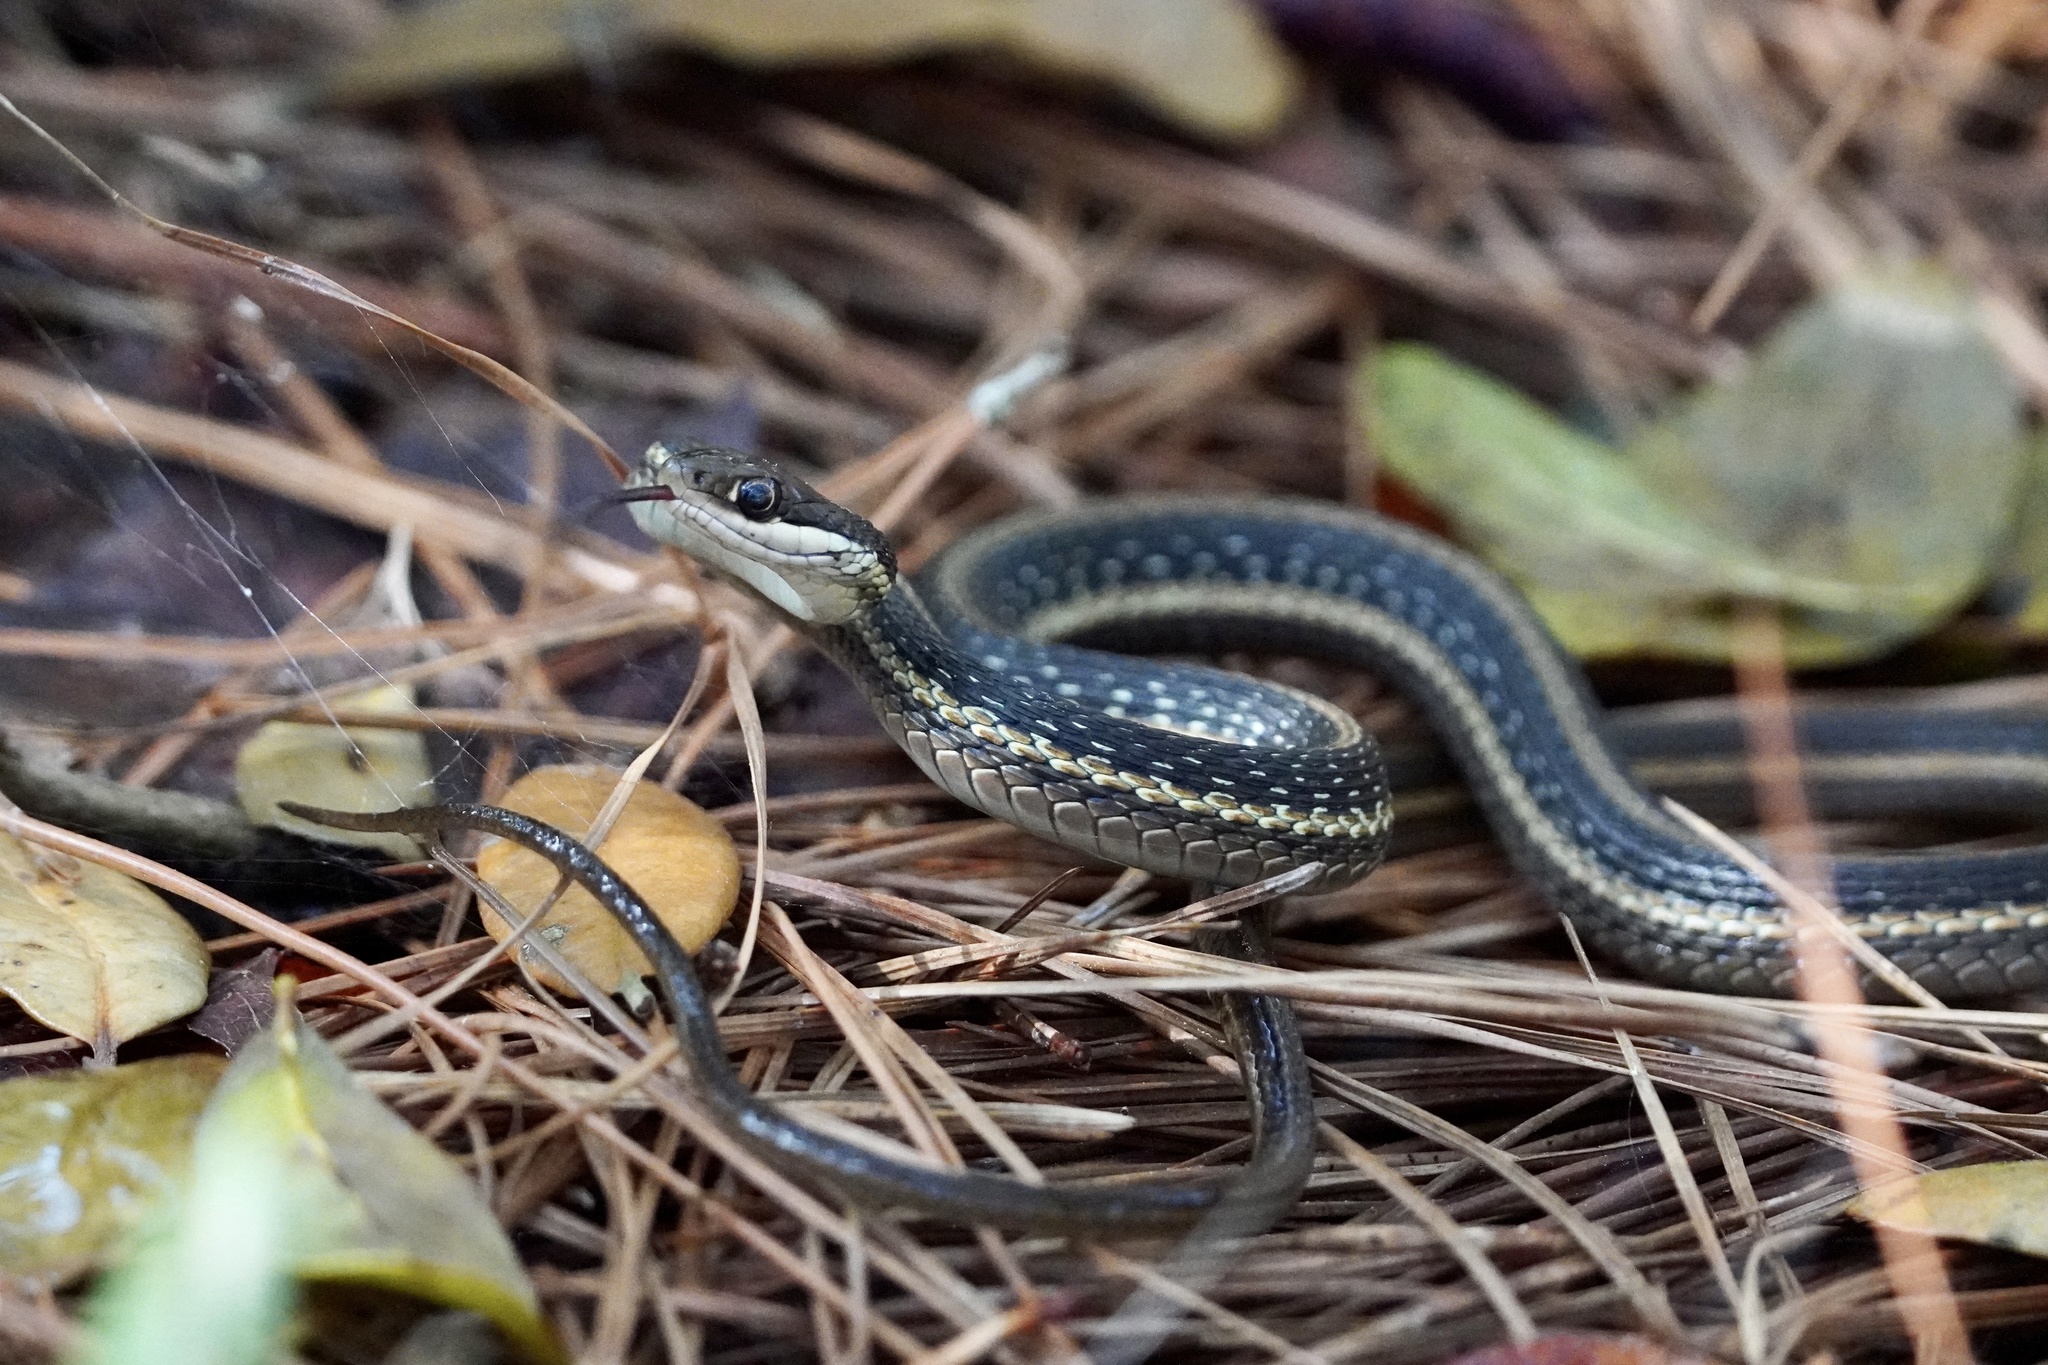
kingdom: Animalia
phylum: Chordata
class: Squamata
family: Colubridae
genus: Thamnophis
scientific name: Thamnophis saurita
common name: Eastern ribbonsnake
